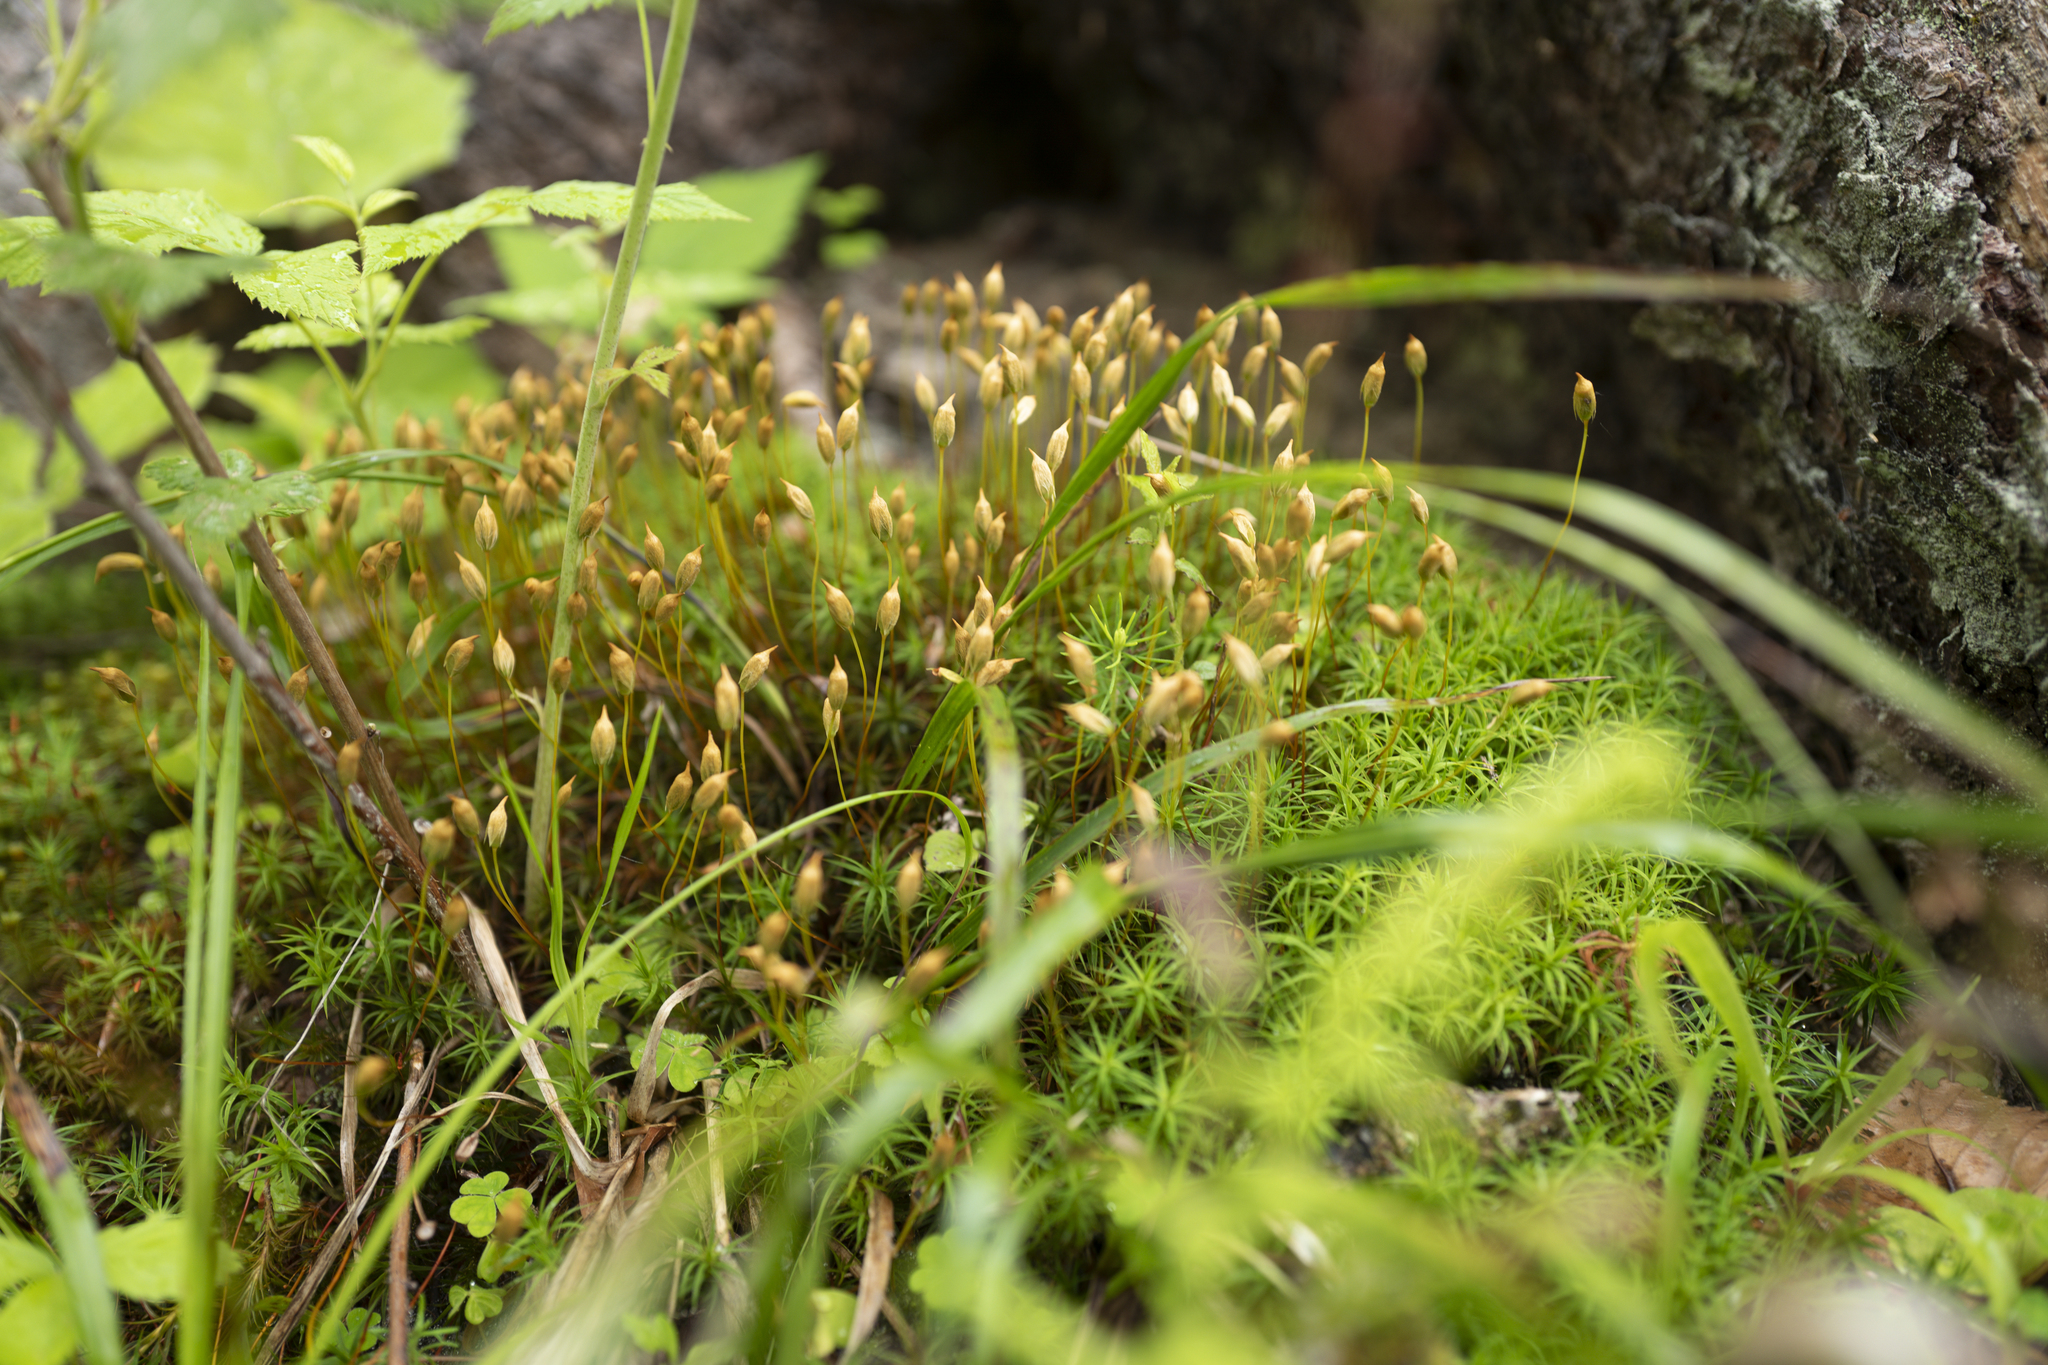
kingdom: Plantae
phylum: Bryophyta
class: Polytrichopsida
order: Polytrichales
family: Polytrichaceae
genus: Polytrichum
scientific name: Polytrichum formosum
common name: Bank haircap moss
